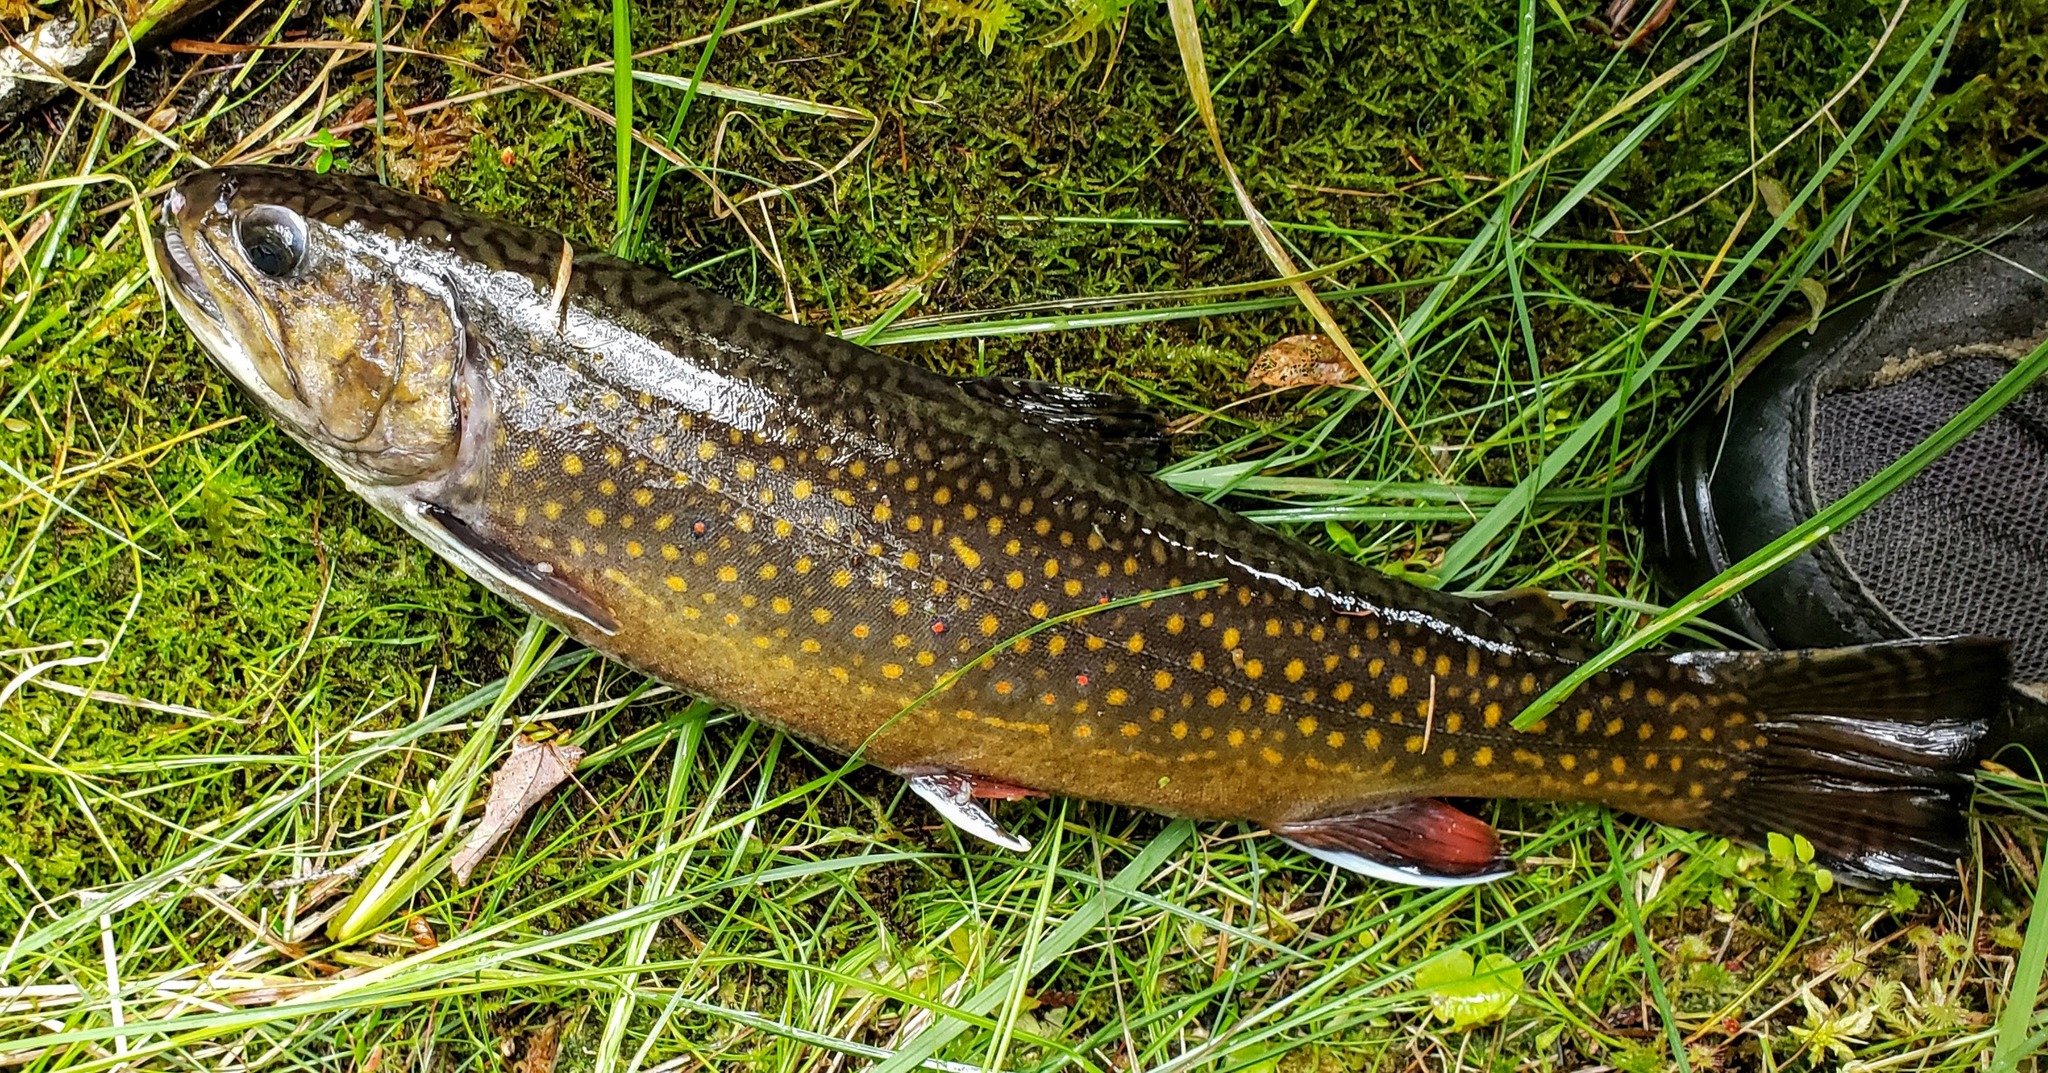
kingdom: Animalia
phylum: Chordata
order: Salmoniformes
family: Salmonidae
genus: Salvelinus
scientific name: Salvelinus fontinalis
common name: Brook trout
